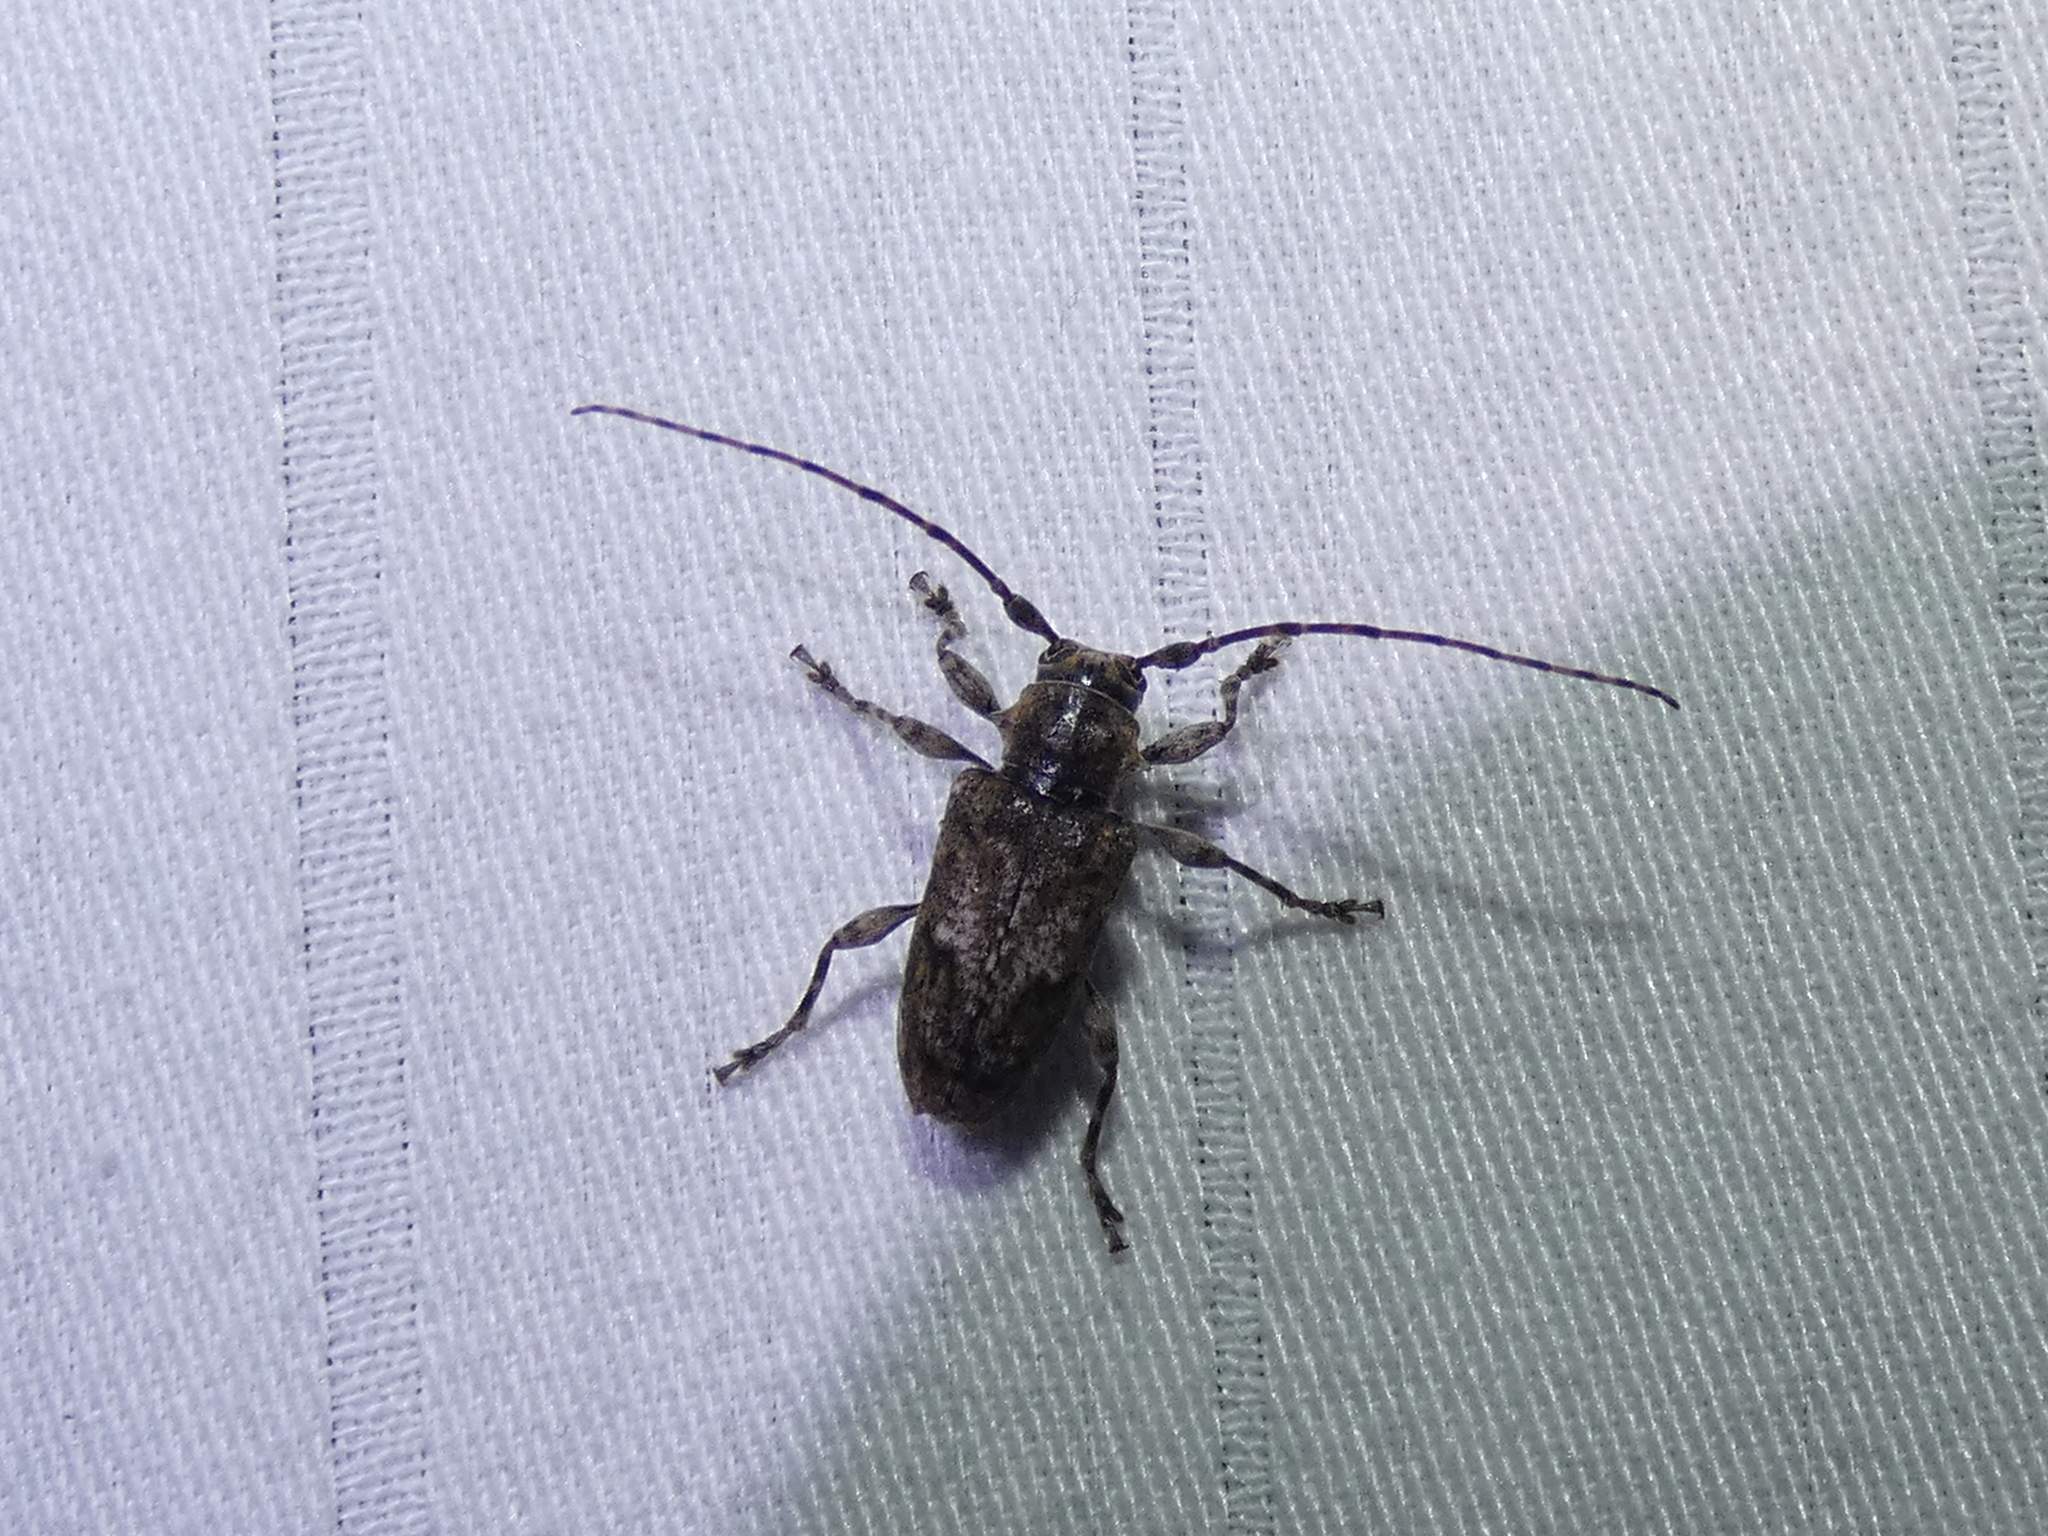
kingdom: Animalia
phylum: Arthropoda
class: Insecta
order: Coleoptera
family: Cerambycidae
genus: Aegomorphus
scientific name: Aegomorphus modestus
